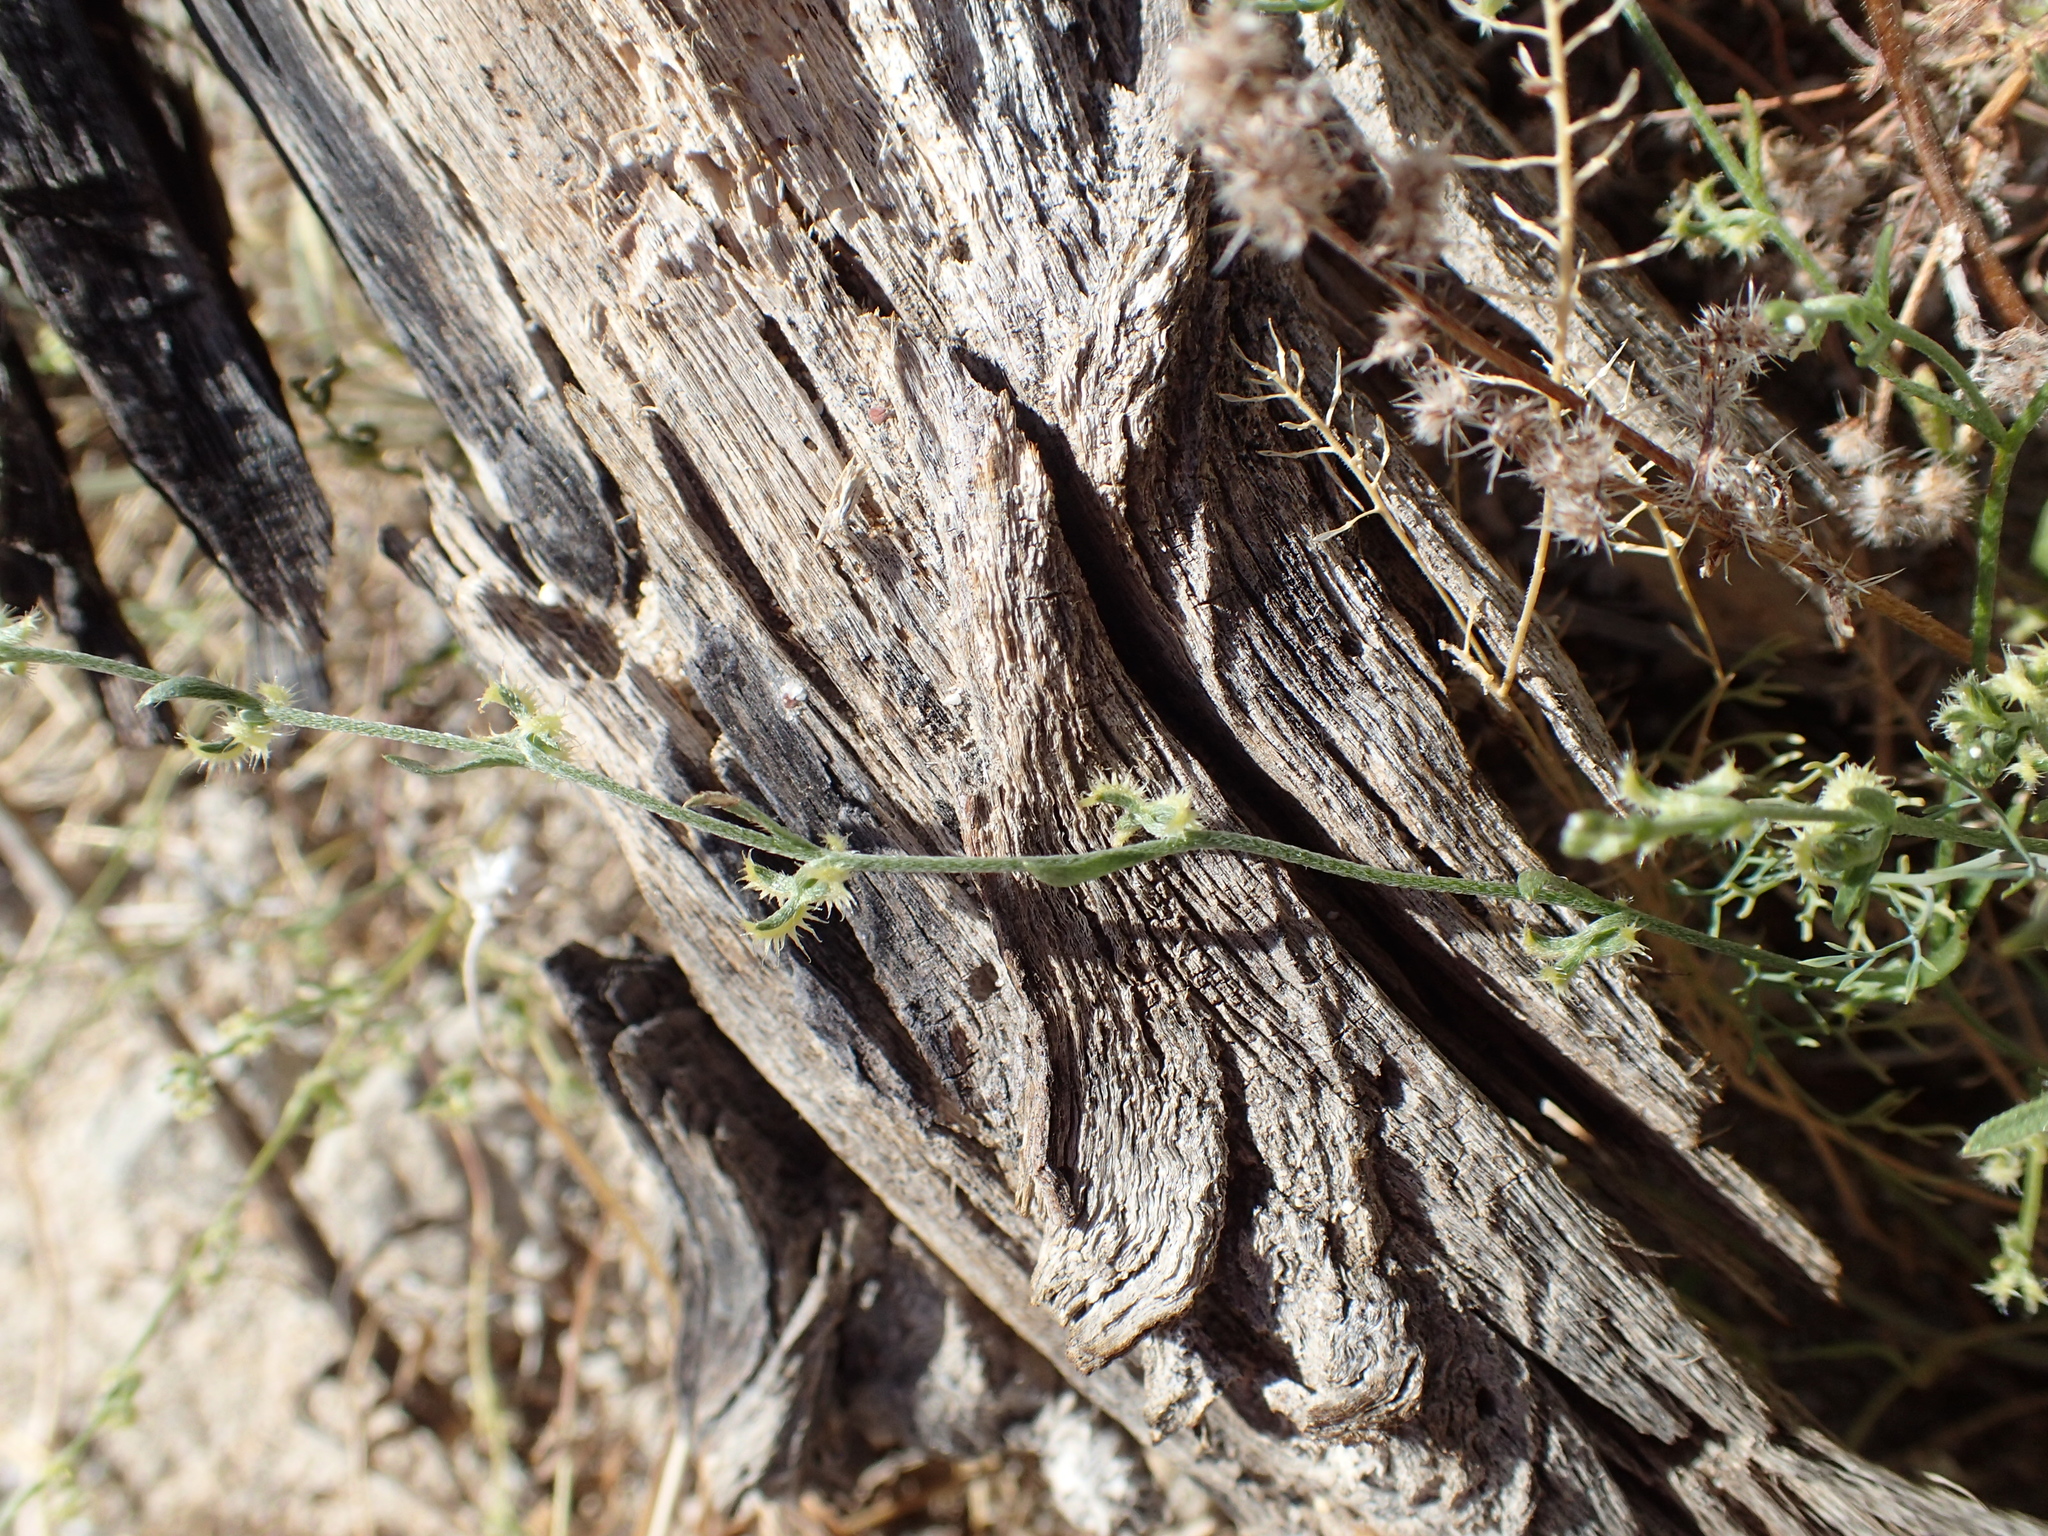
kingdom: Plantae
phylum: Tracheophyta
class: Magnoliopsida
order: Boraginales
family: Boraginaceae
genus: Pectocarya
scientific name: Pectocarya recurvata
